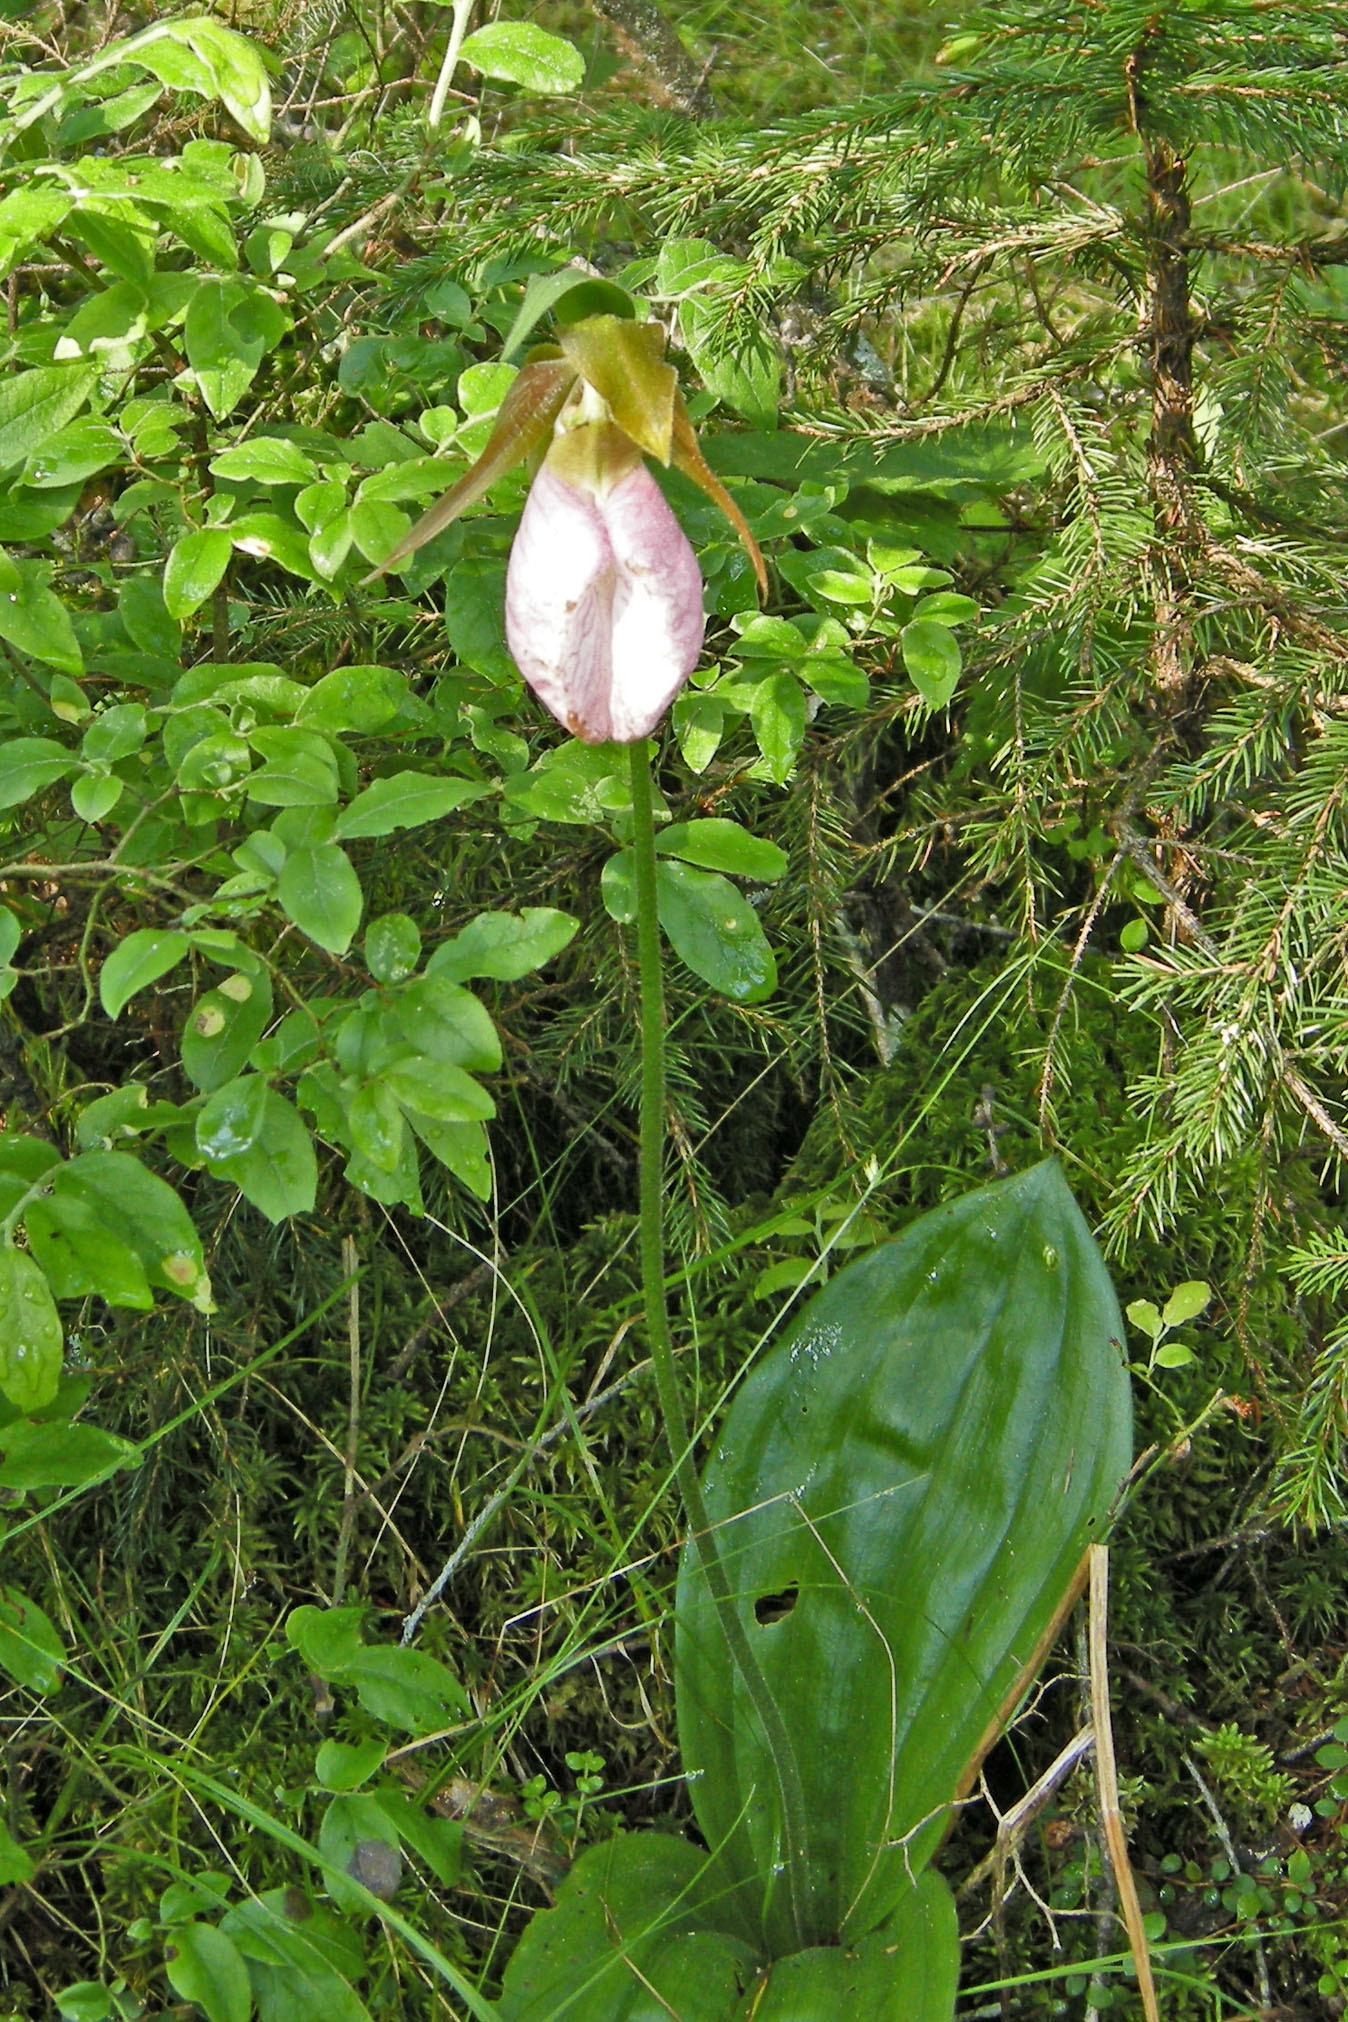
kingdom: Plantae
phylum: Tracheophyta
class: Liliopsida
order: Asparagales
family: Orchidaceae
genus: Cypripedium
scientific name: Cypripedium acaule
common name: Pink lady's-slipper
